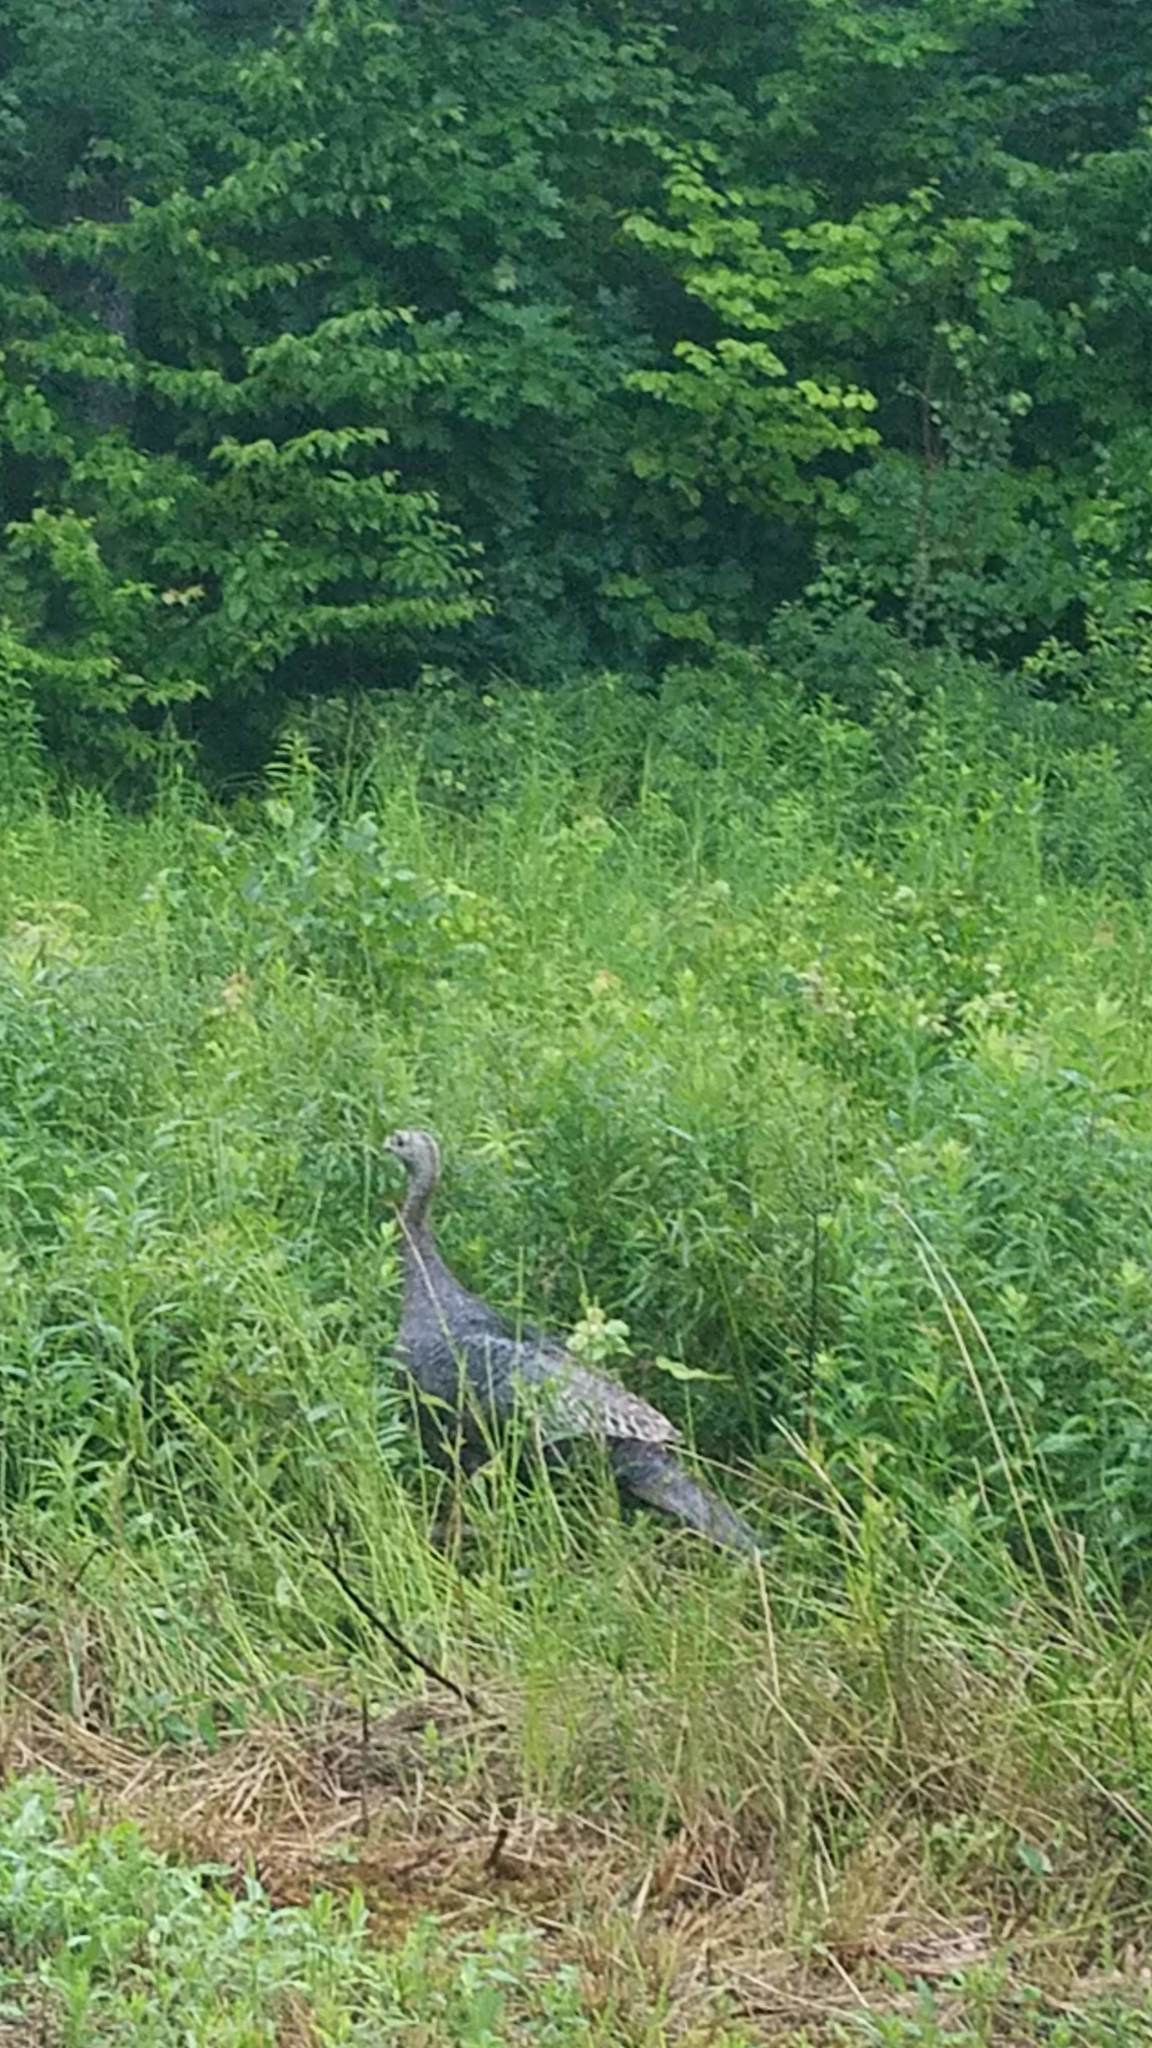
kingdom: Animalia
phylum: Chordata
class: Aves
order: Galliformes
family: Phasianidae
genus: Meleagris
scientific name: Meleagris gallopavo
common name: Wild turkey
